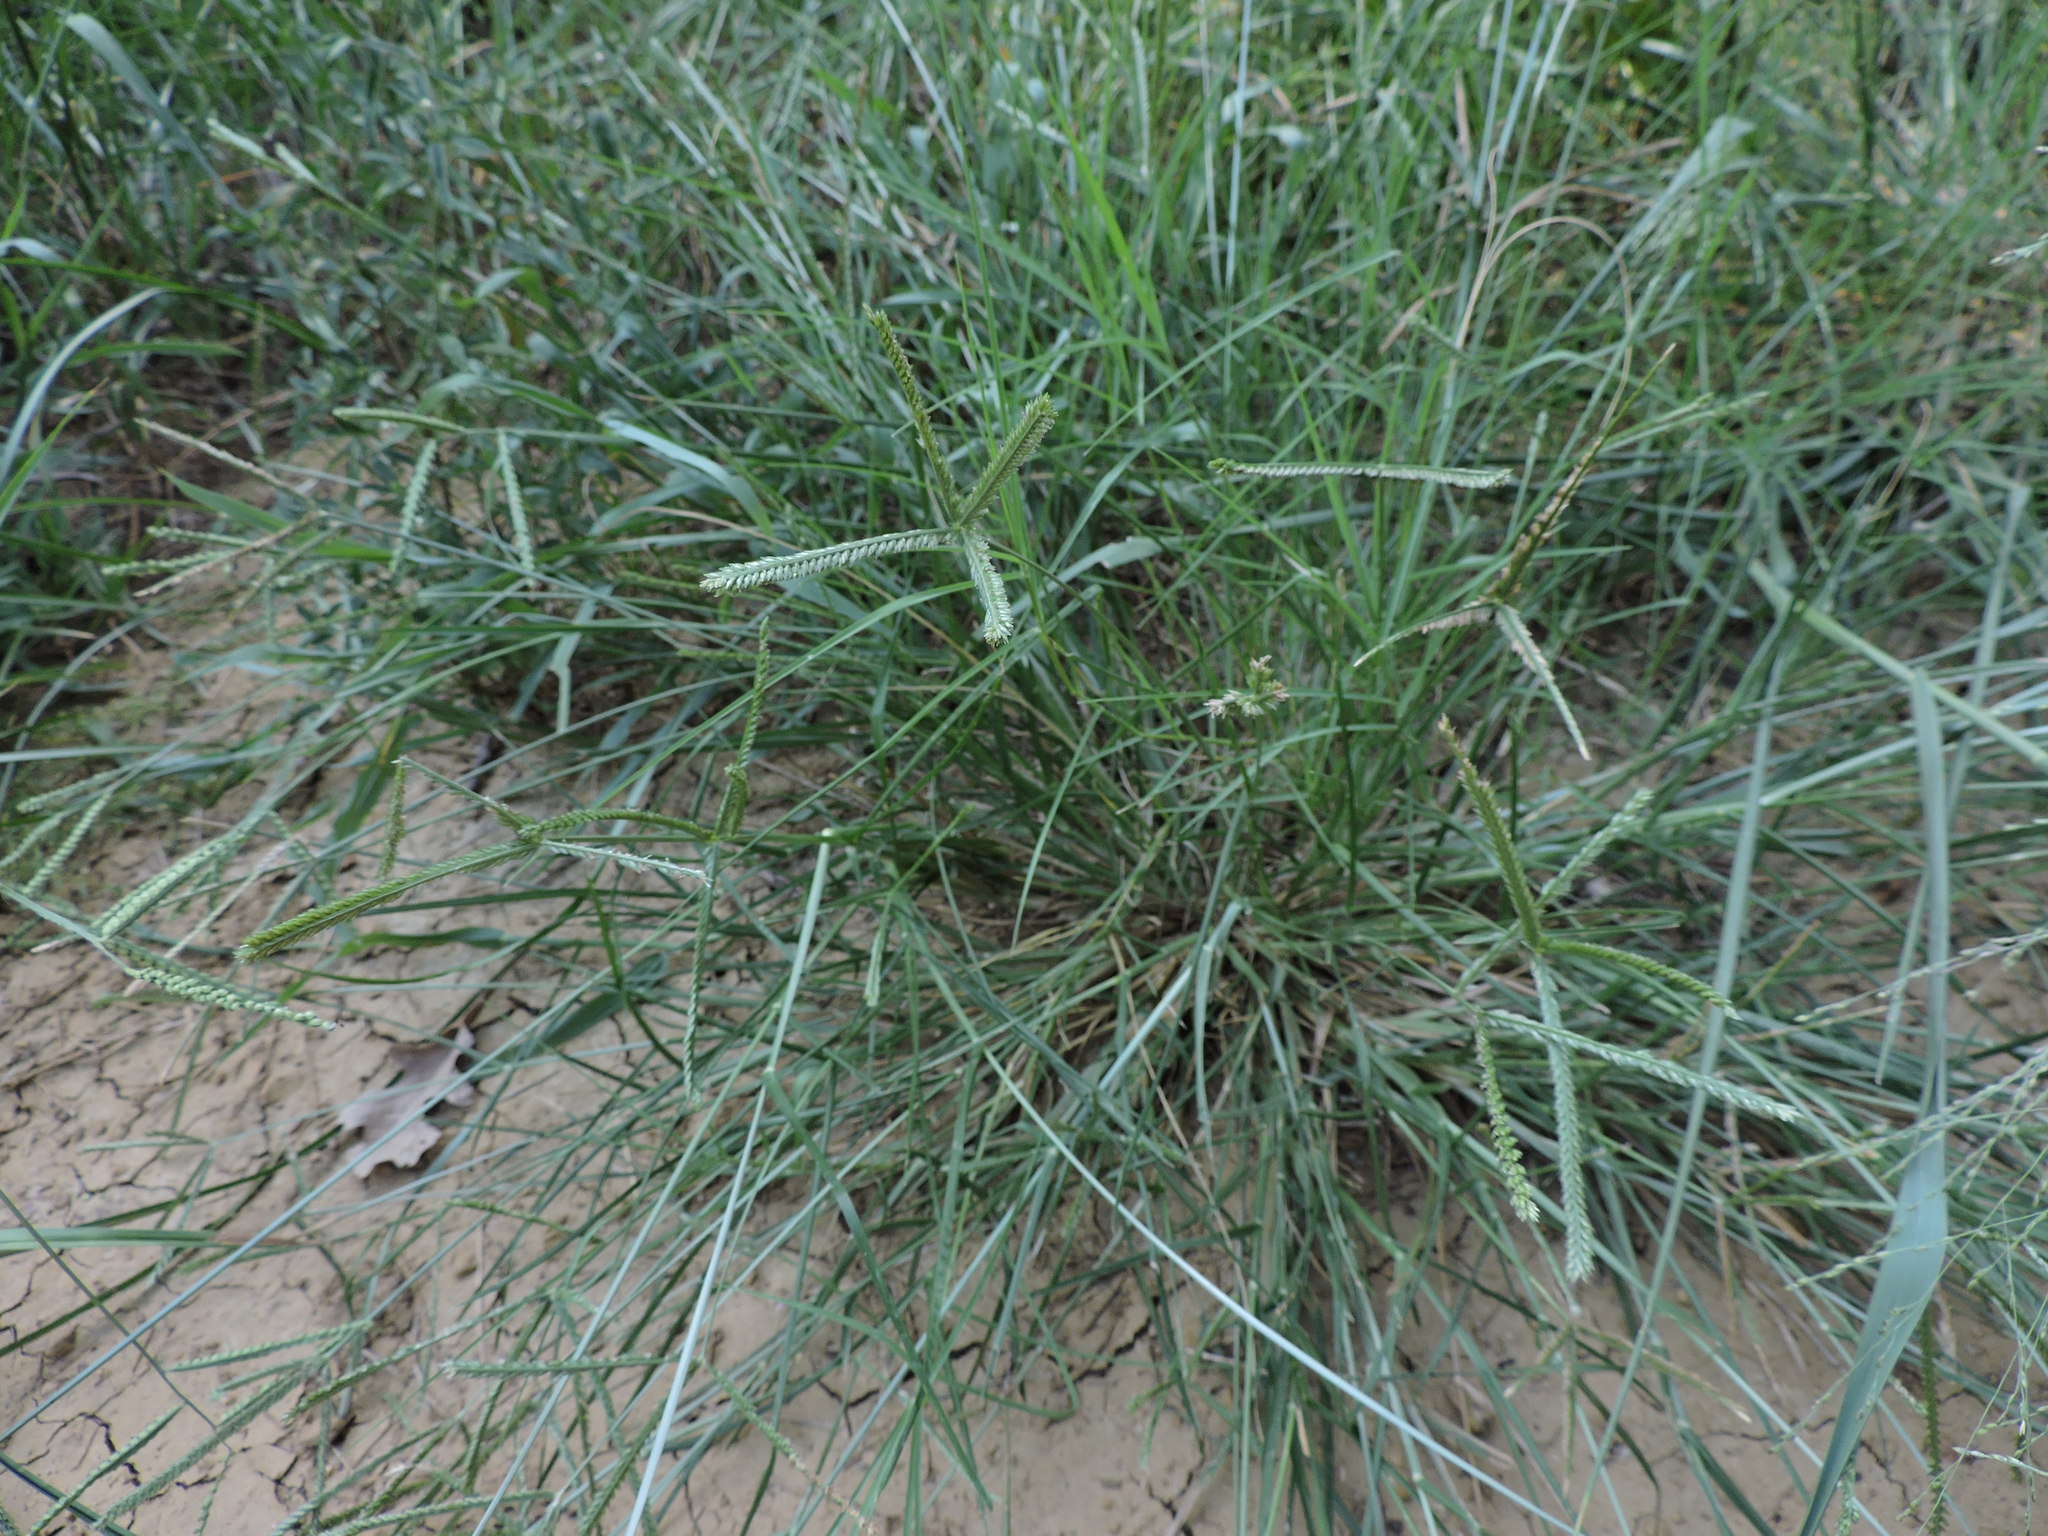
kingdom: Plantae
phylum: Tracheophyta
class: Liliopsida
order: Poales
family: Poaceae
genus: Eleusine
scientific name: Eleusine indica
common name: Yard-grass
